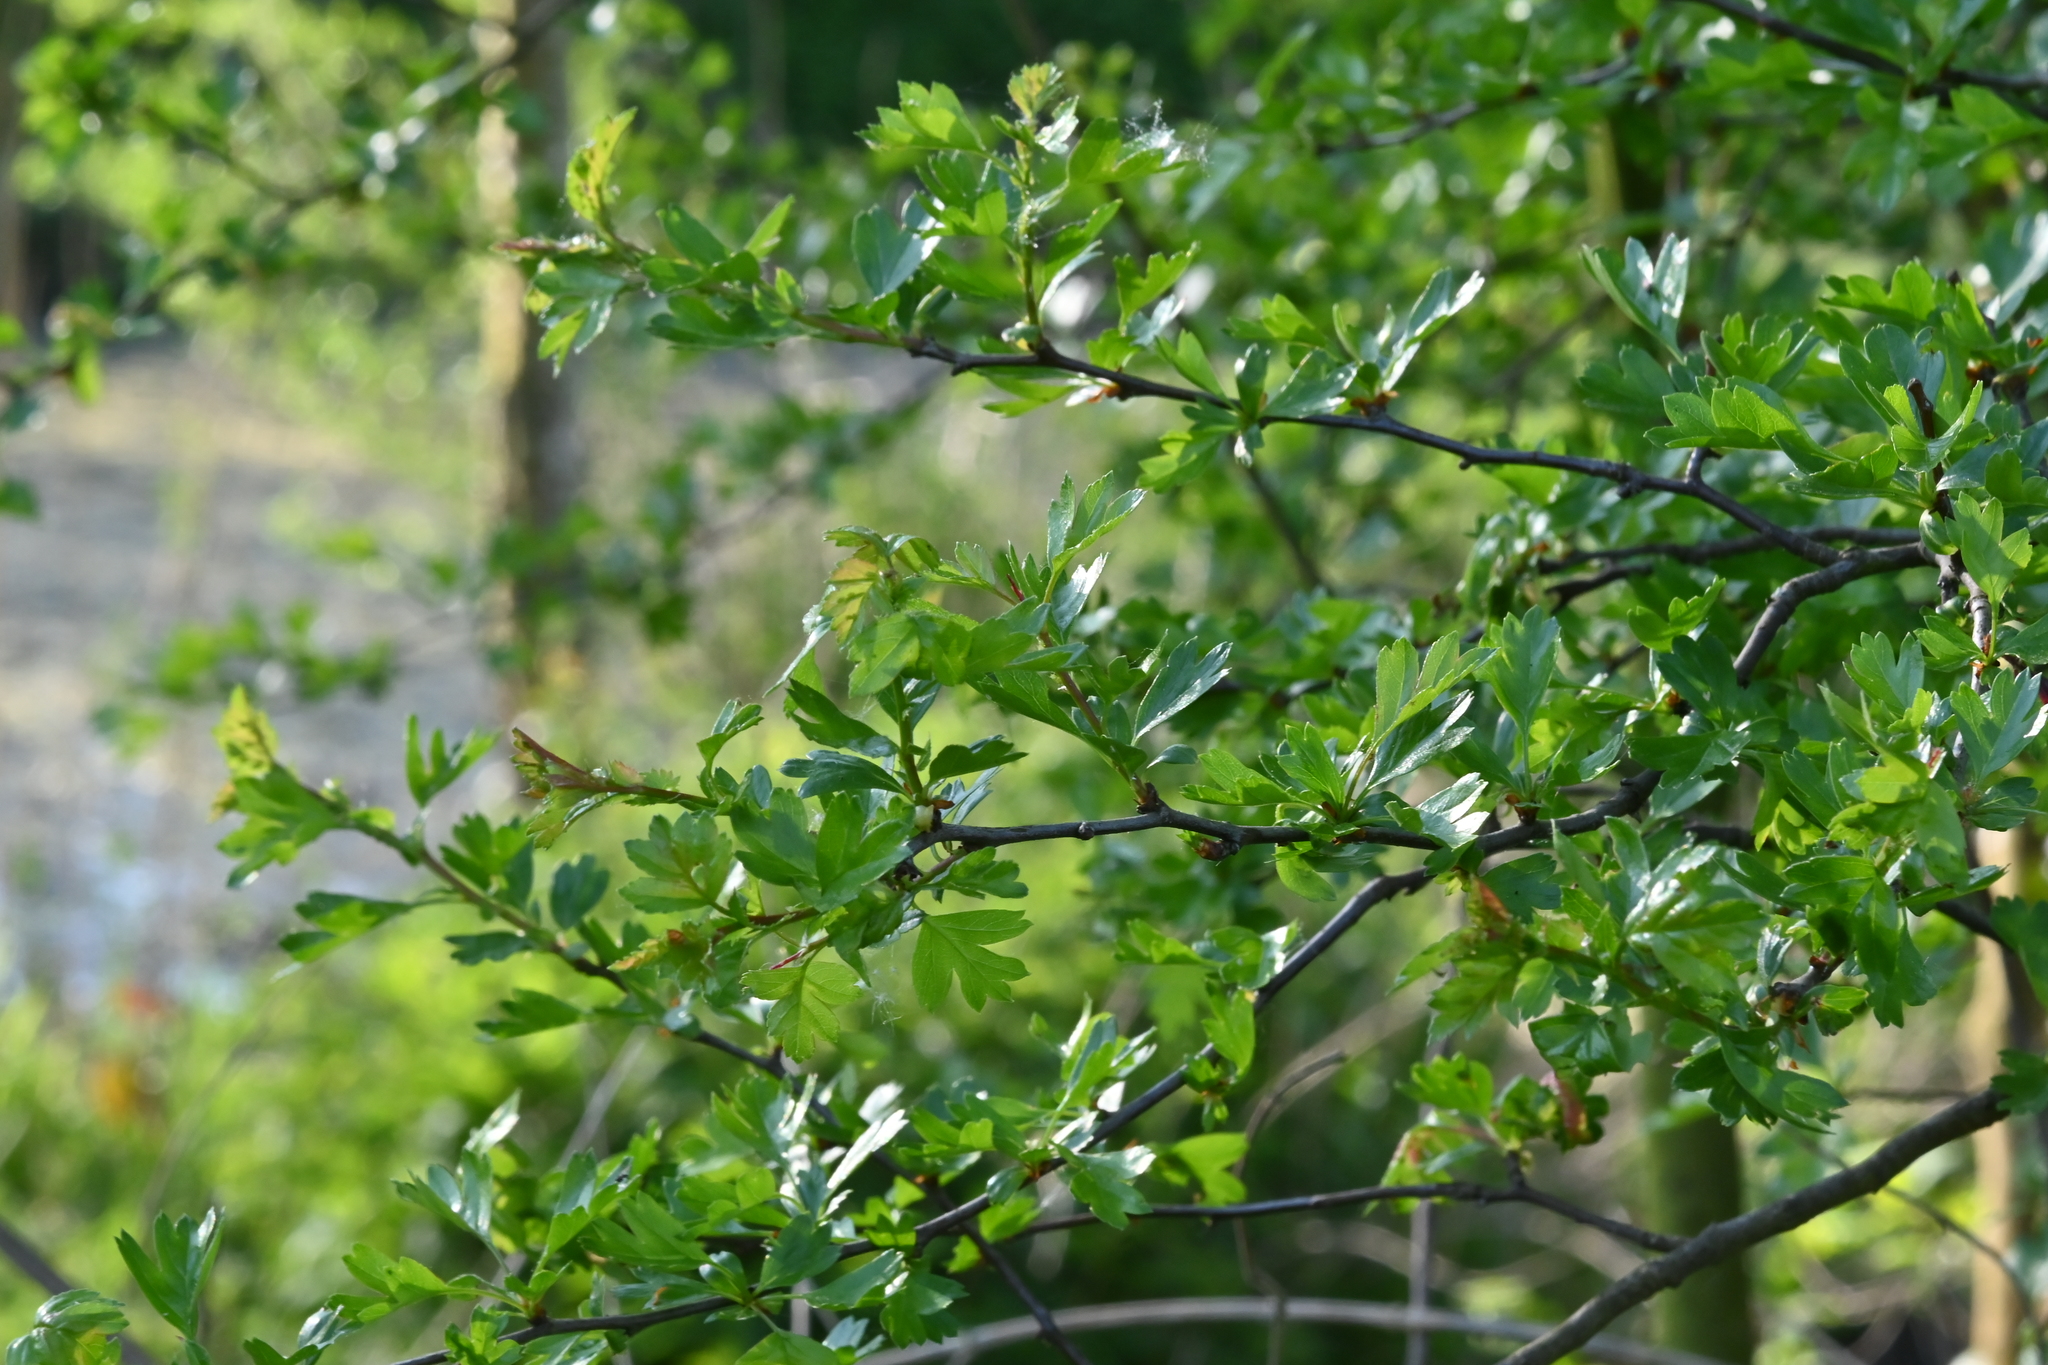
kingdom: Plantae
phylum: Tracheophyta
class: Magnoliopsida
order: Rosales
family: Rosaceae
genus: Crataegus
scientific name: Crataegus monogyna
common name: Hawthorn
